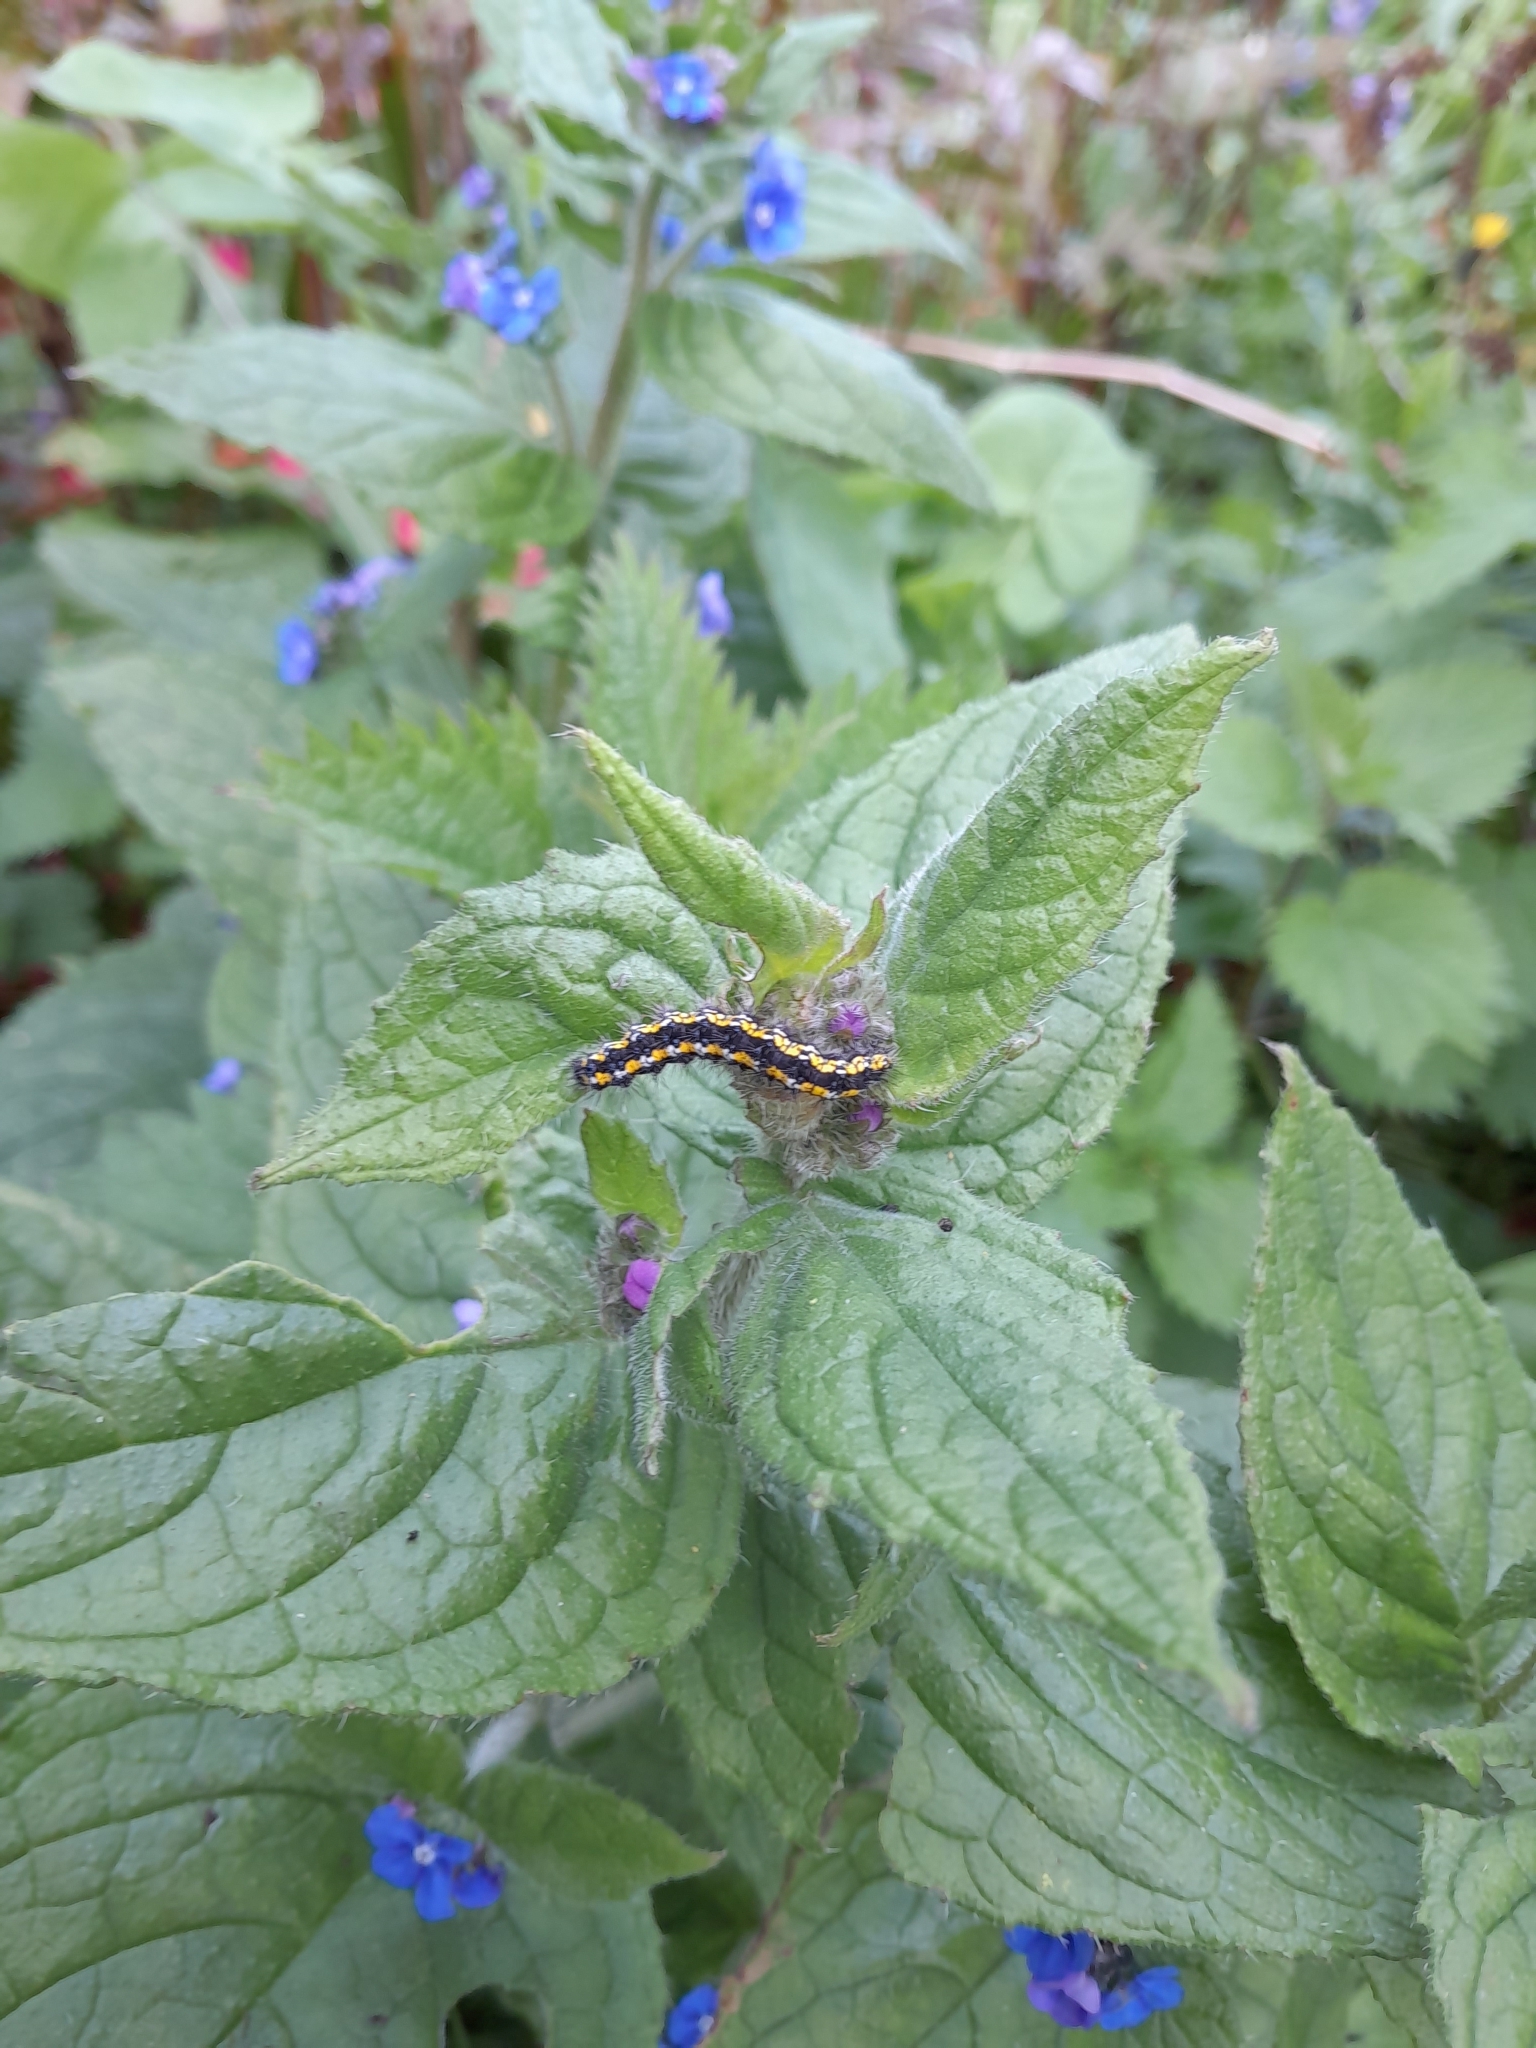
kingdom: Animalia
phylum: Arthropoda
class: Insecta
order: Lepidoptera
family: Erebidae
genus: Callimorpha
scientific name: Callimorpha dominula
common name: Scarlet tiger
